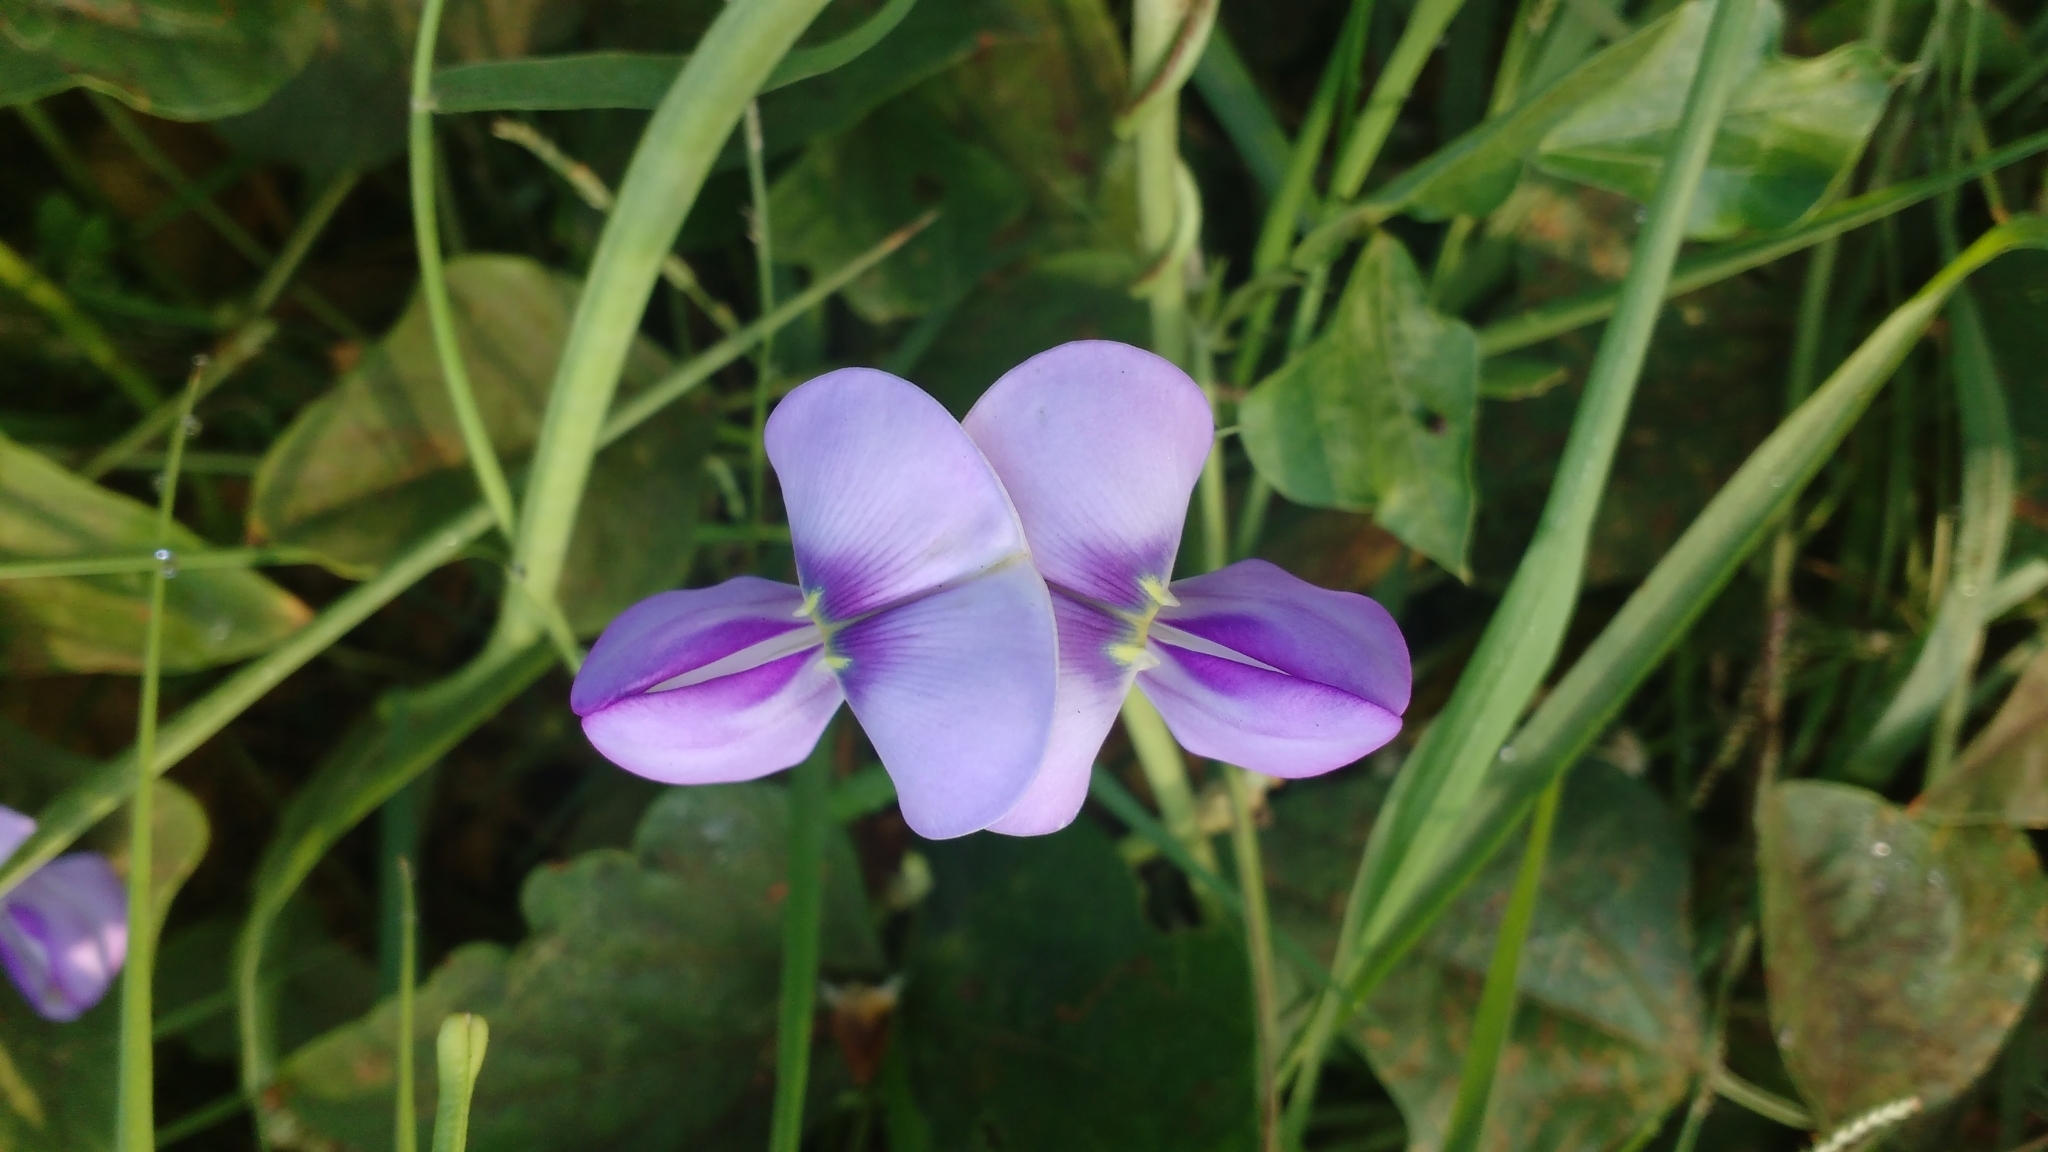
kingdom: Plantae
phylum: Tracheophyta
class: Magnoliopsida
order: Fabales
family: Fabaceae
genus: Vigna
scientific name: Vigna unguiculata
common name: Cowpea
